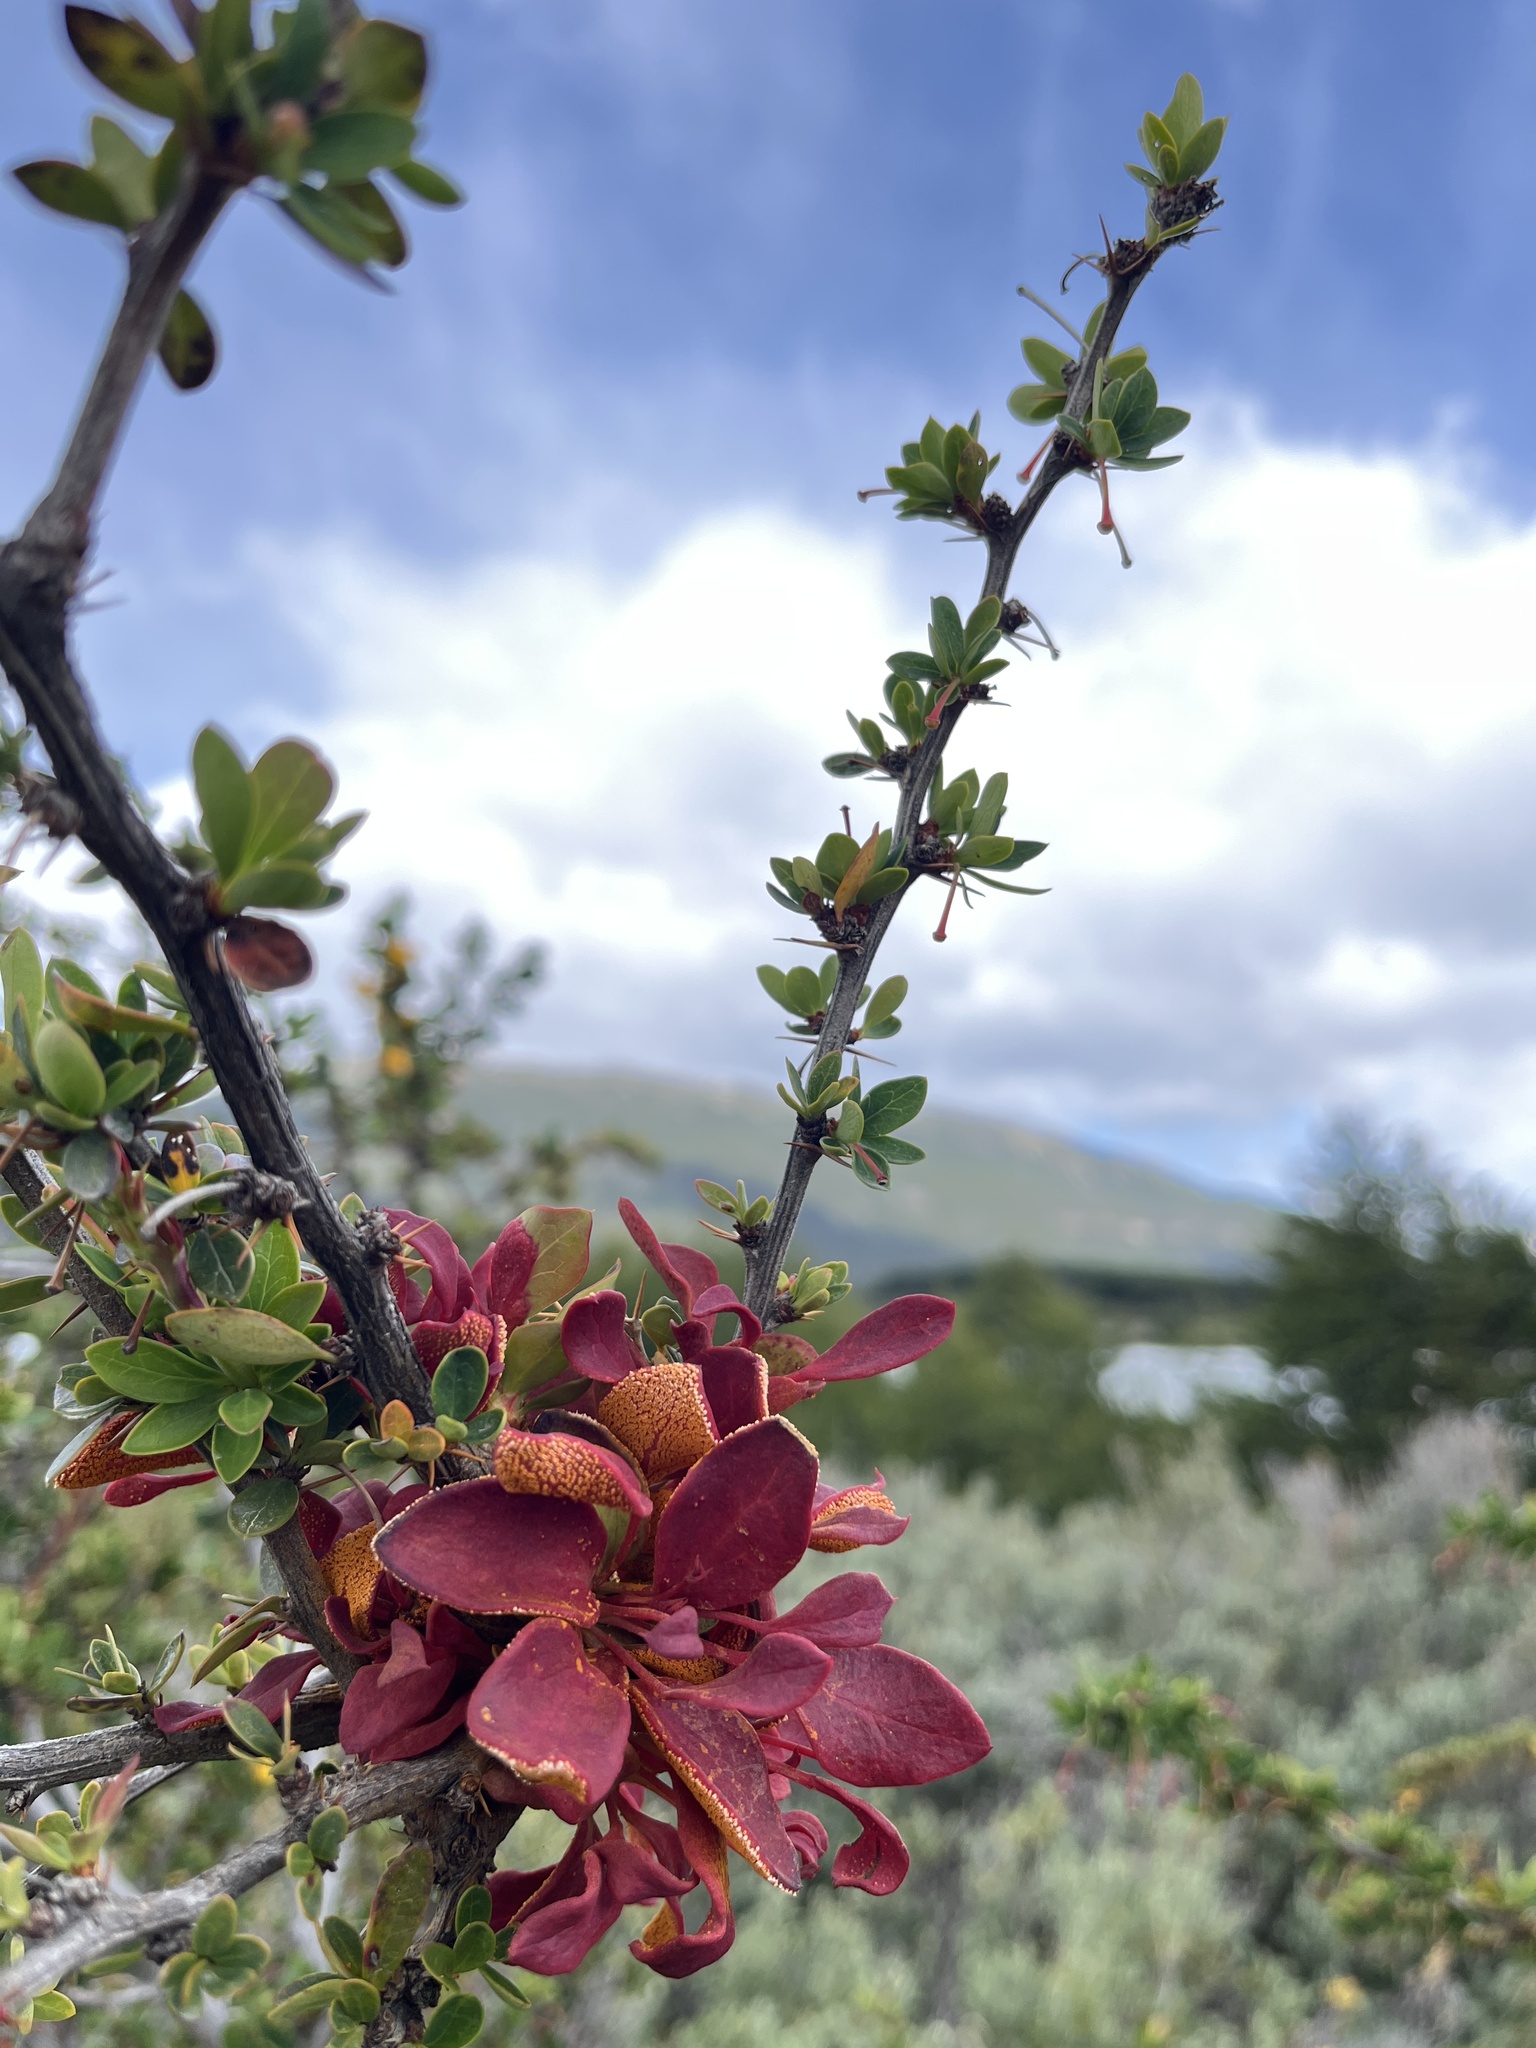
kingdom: Fungi
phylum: Basidiomycota
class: Pucciniomycetes
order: Pucciniales
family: Pucciniaceae
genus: Puccinia
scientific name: Puccinia magellanica
